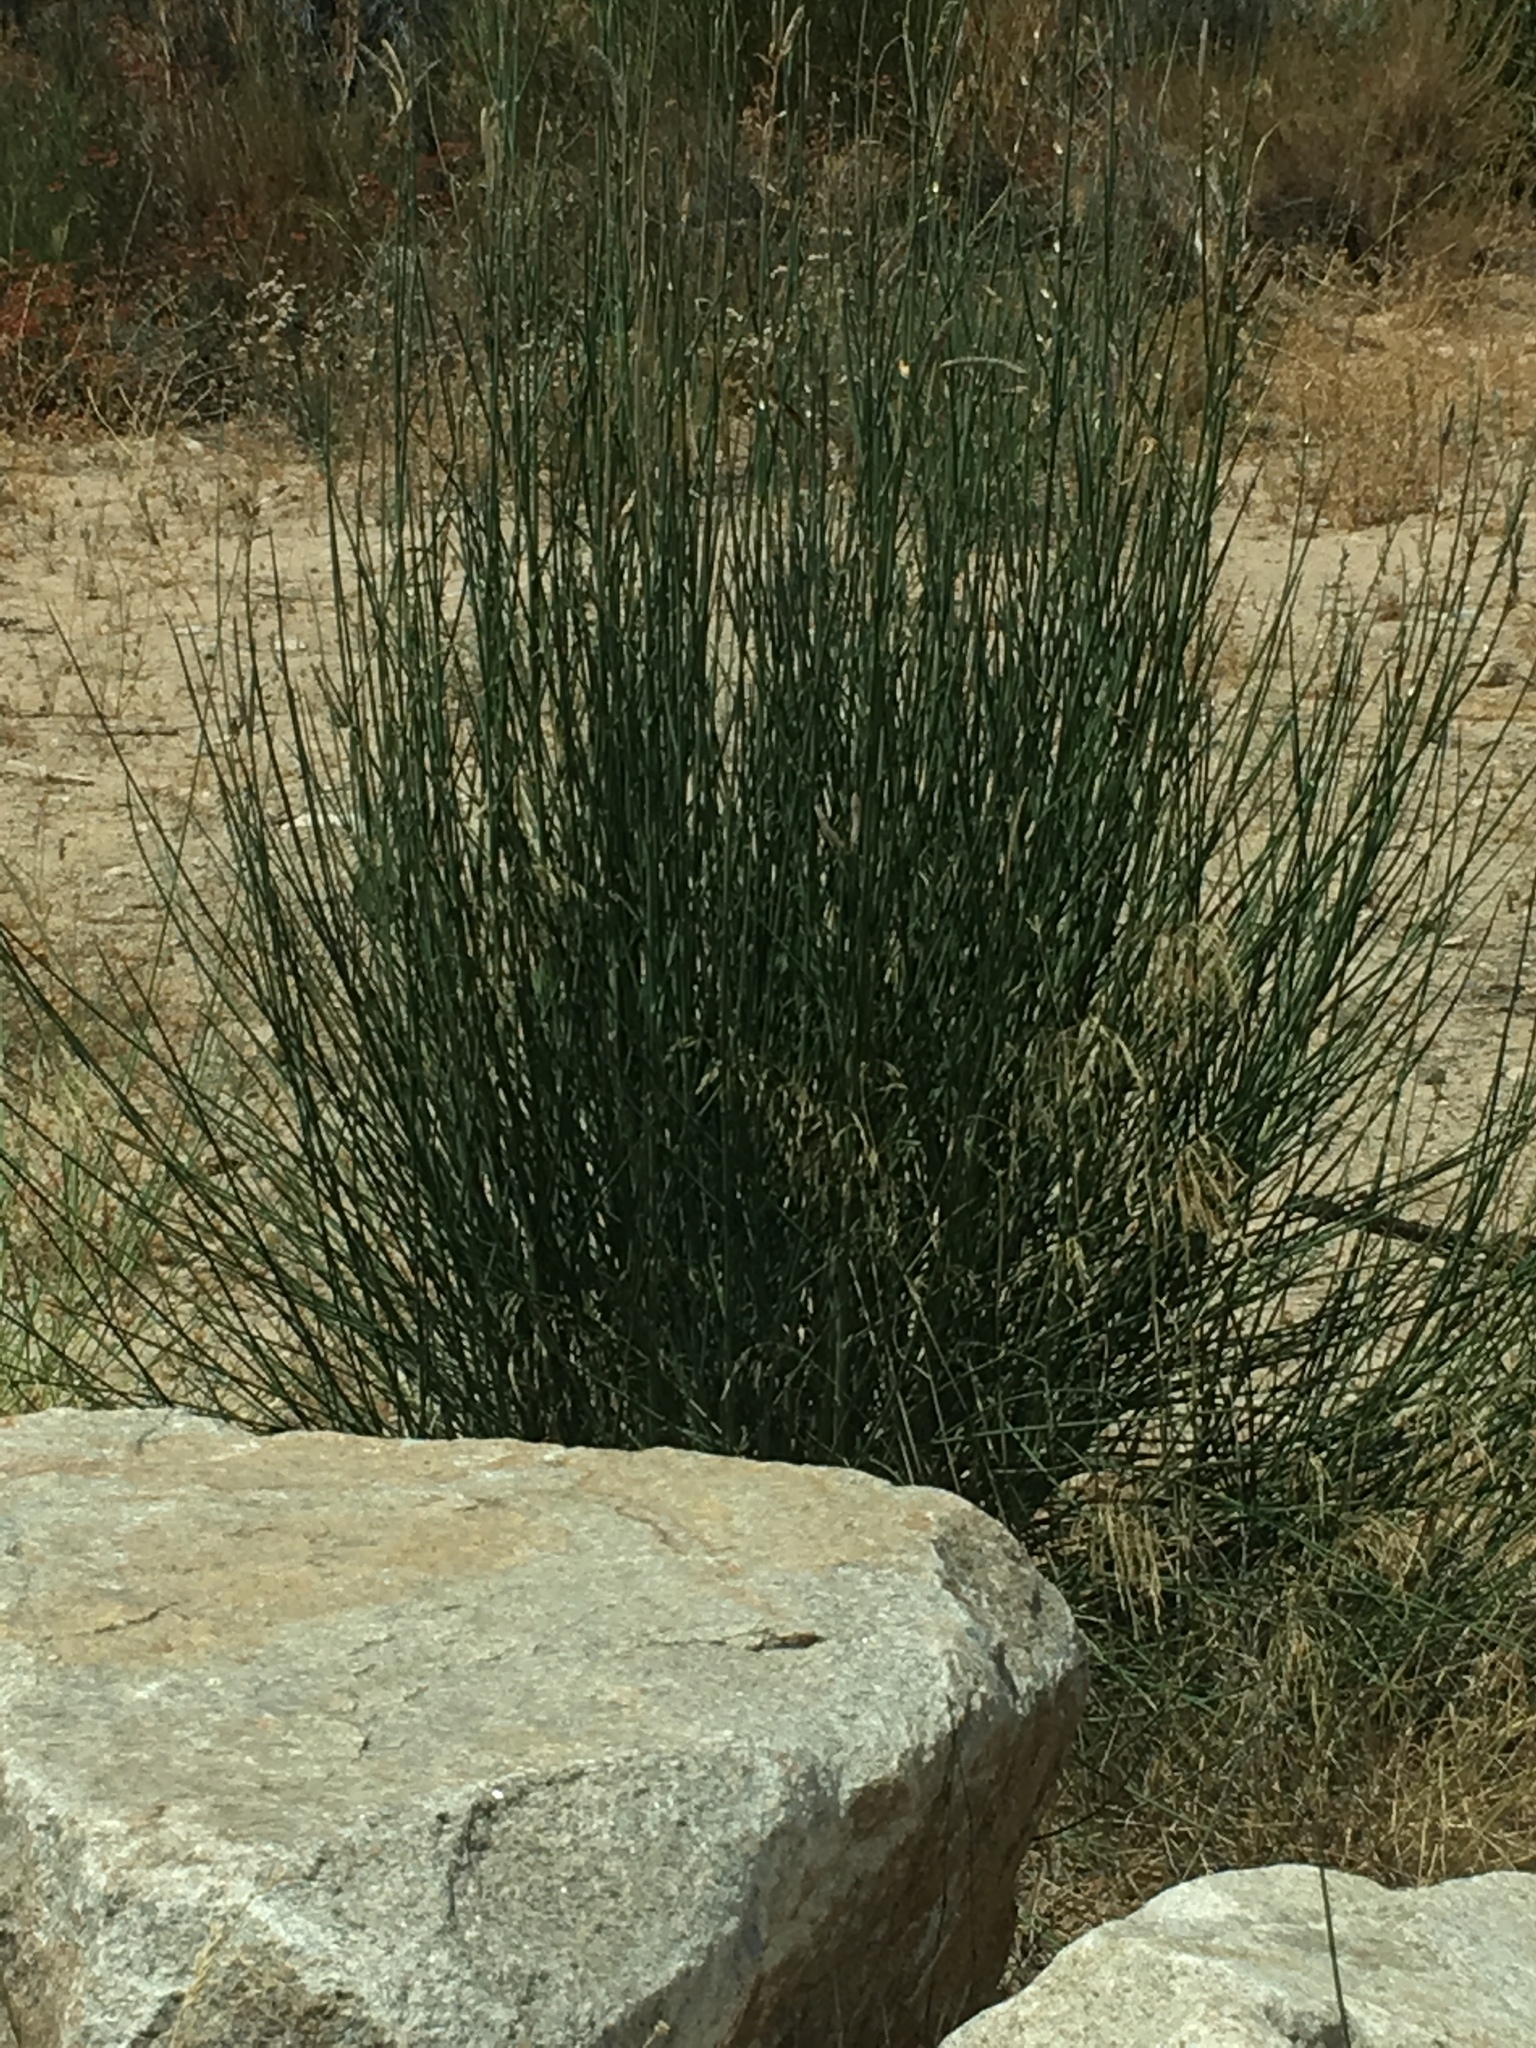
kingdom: Plantae
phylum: Tracheophyta
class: Magnoliopsida
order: Fabales
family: Fabaceae
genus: Spartium
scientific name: Spartium junceum
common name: Spanish broom
